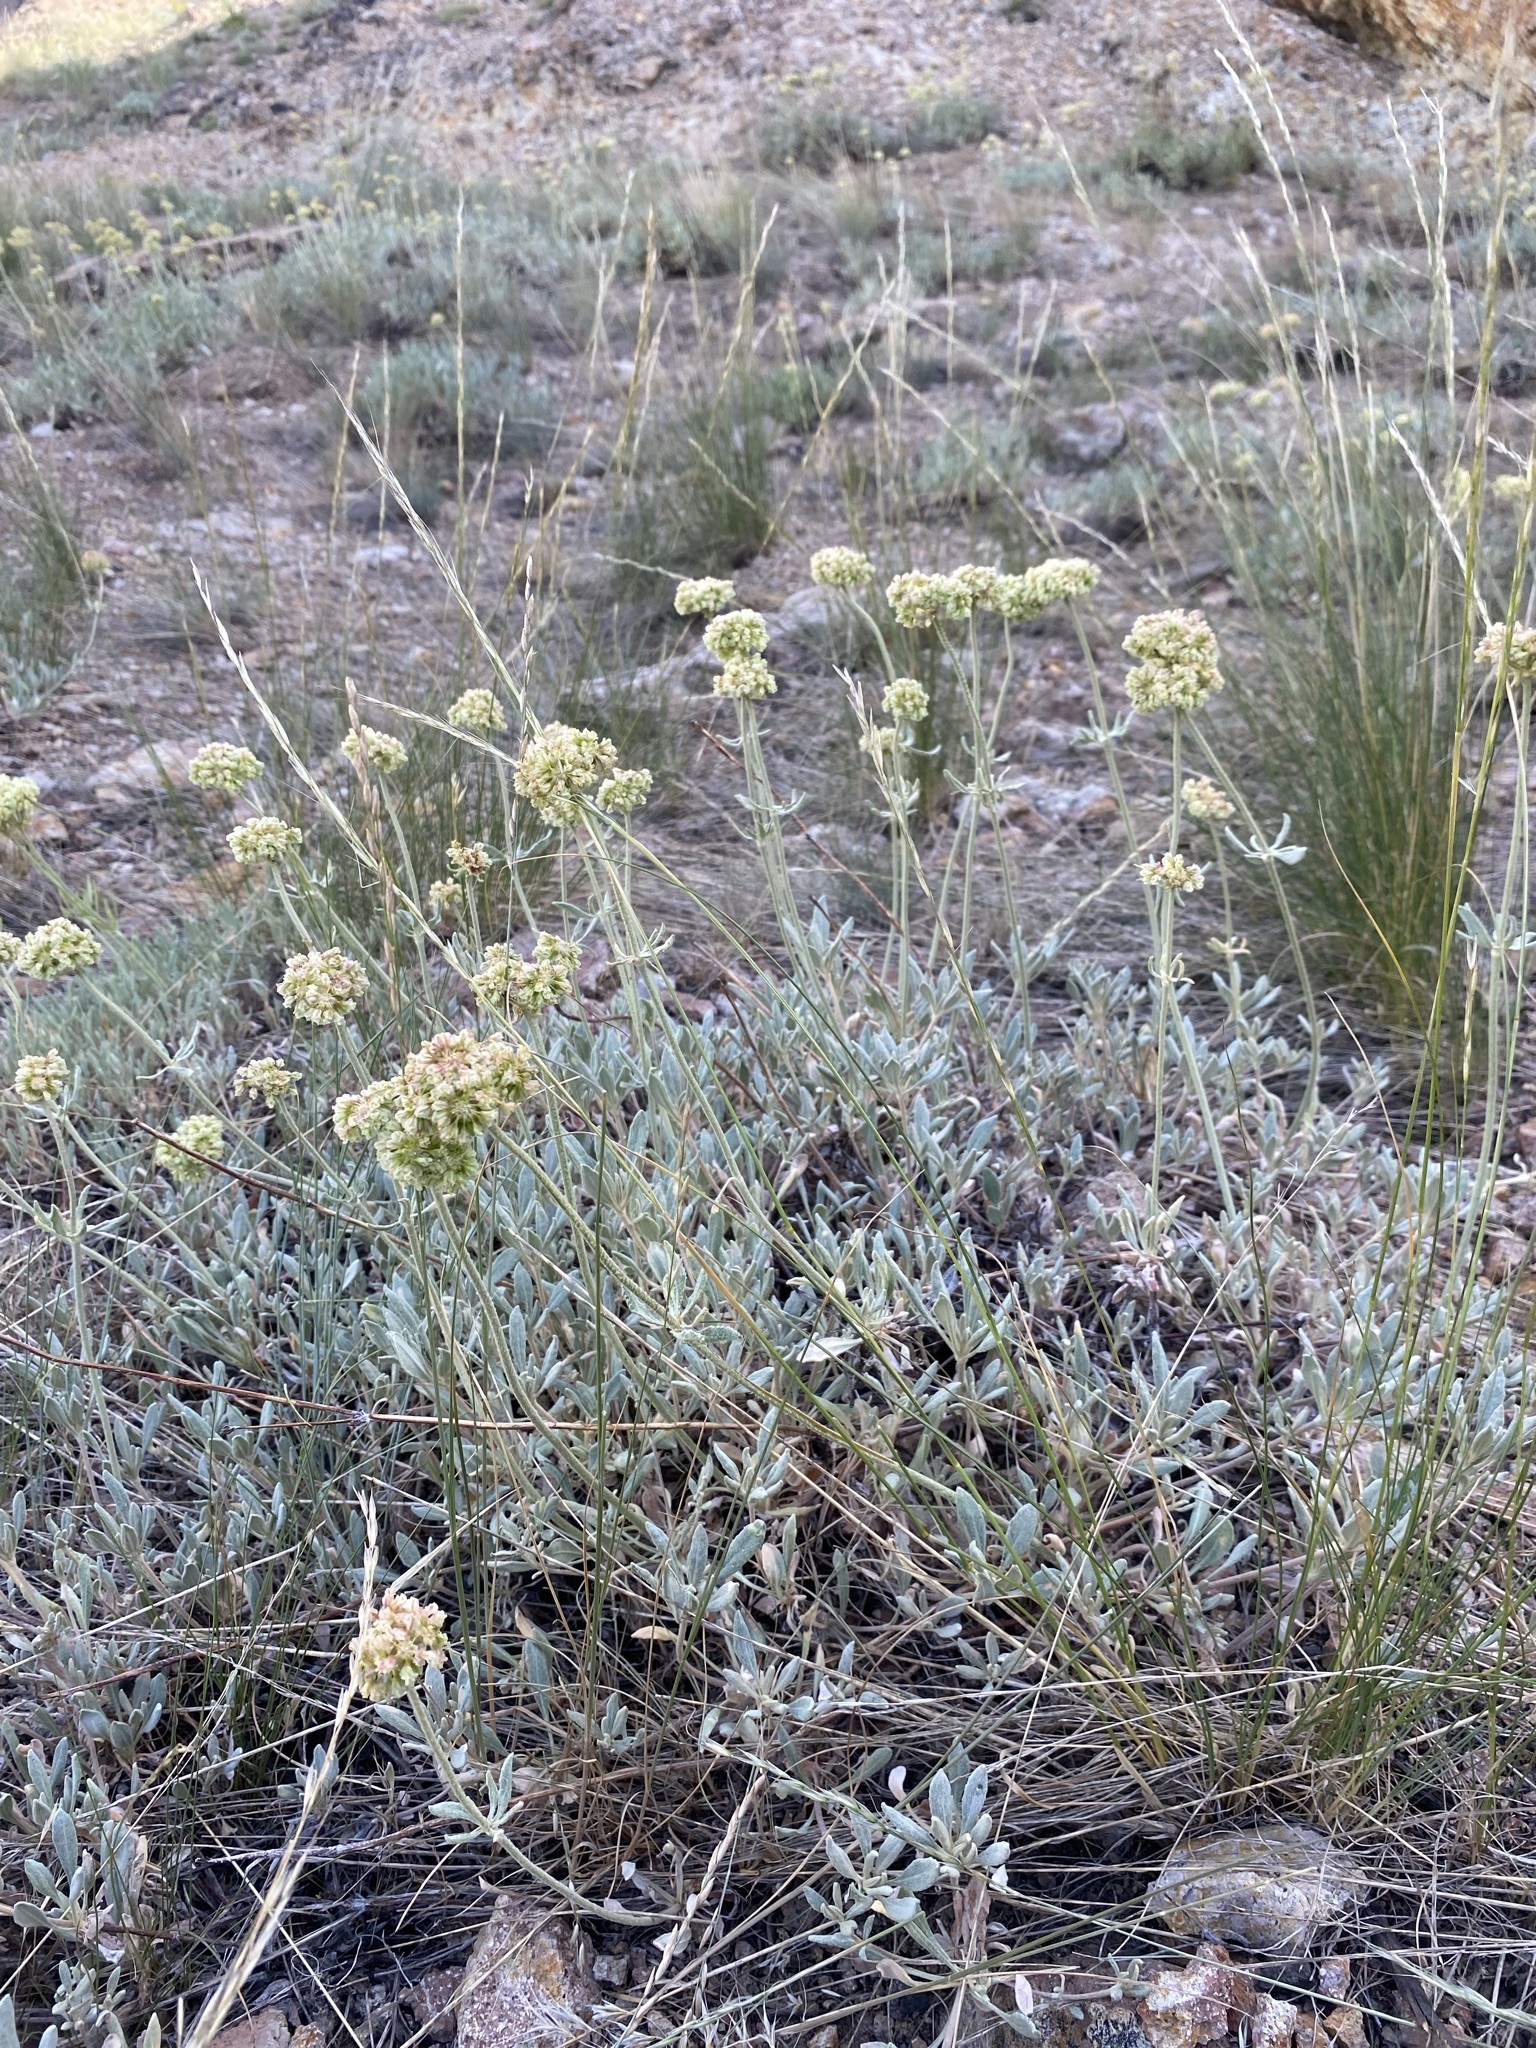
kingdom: Plantae
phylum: Tracheophyta
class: Magnoliopsida
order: Caryophyllales
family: Polygonaceae
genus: Eriogonum
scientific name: Eriogonum heracleoides
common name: Wyeth's buckwheat
